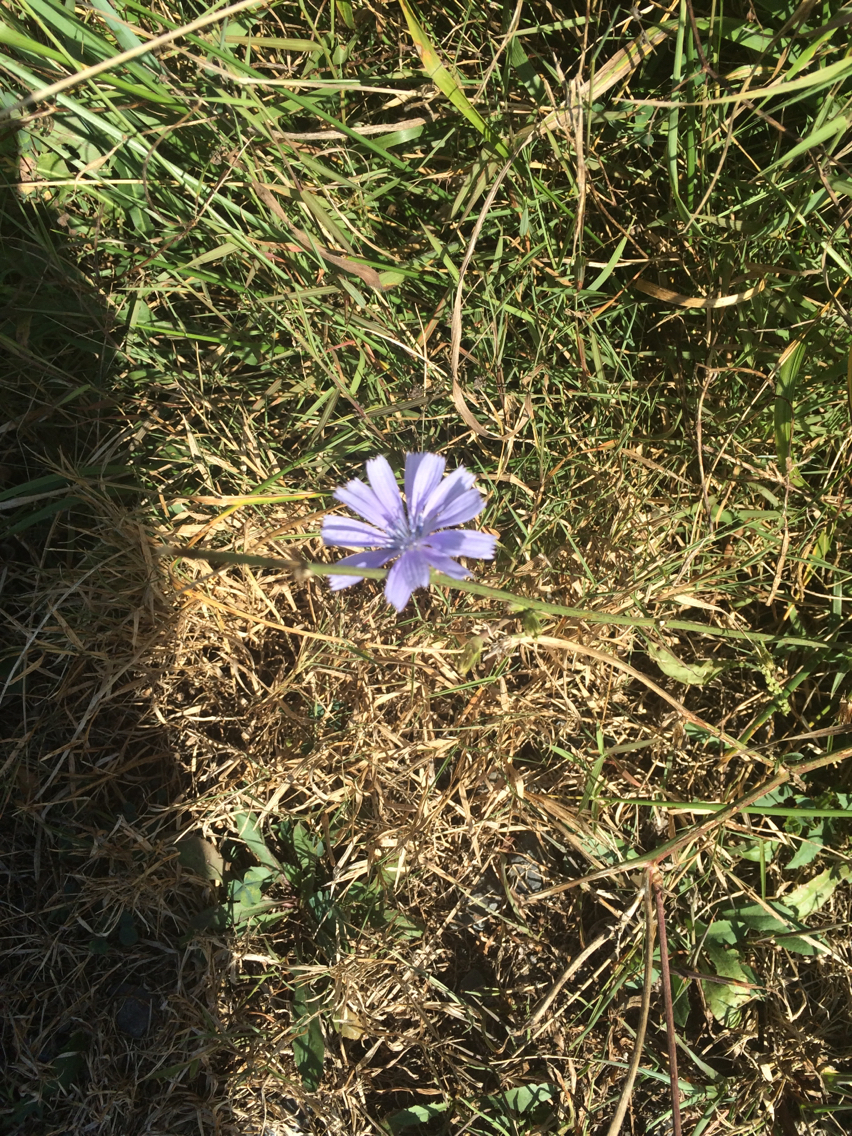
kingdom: Plantae
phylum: Tracheophyta
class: Magnoliopsida
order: Asterales
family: Asteraceae
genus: Cichorium
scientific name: Cichorium intybus
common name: Chicory
